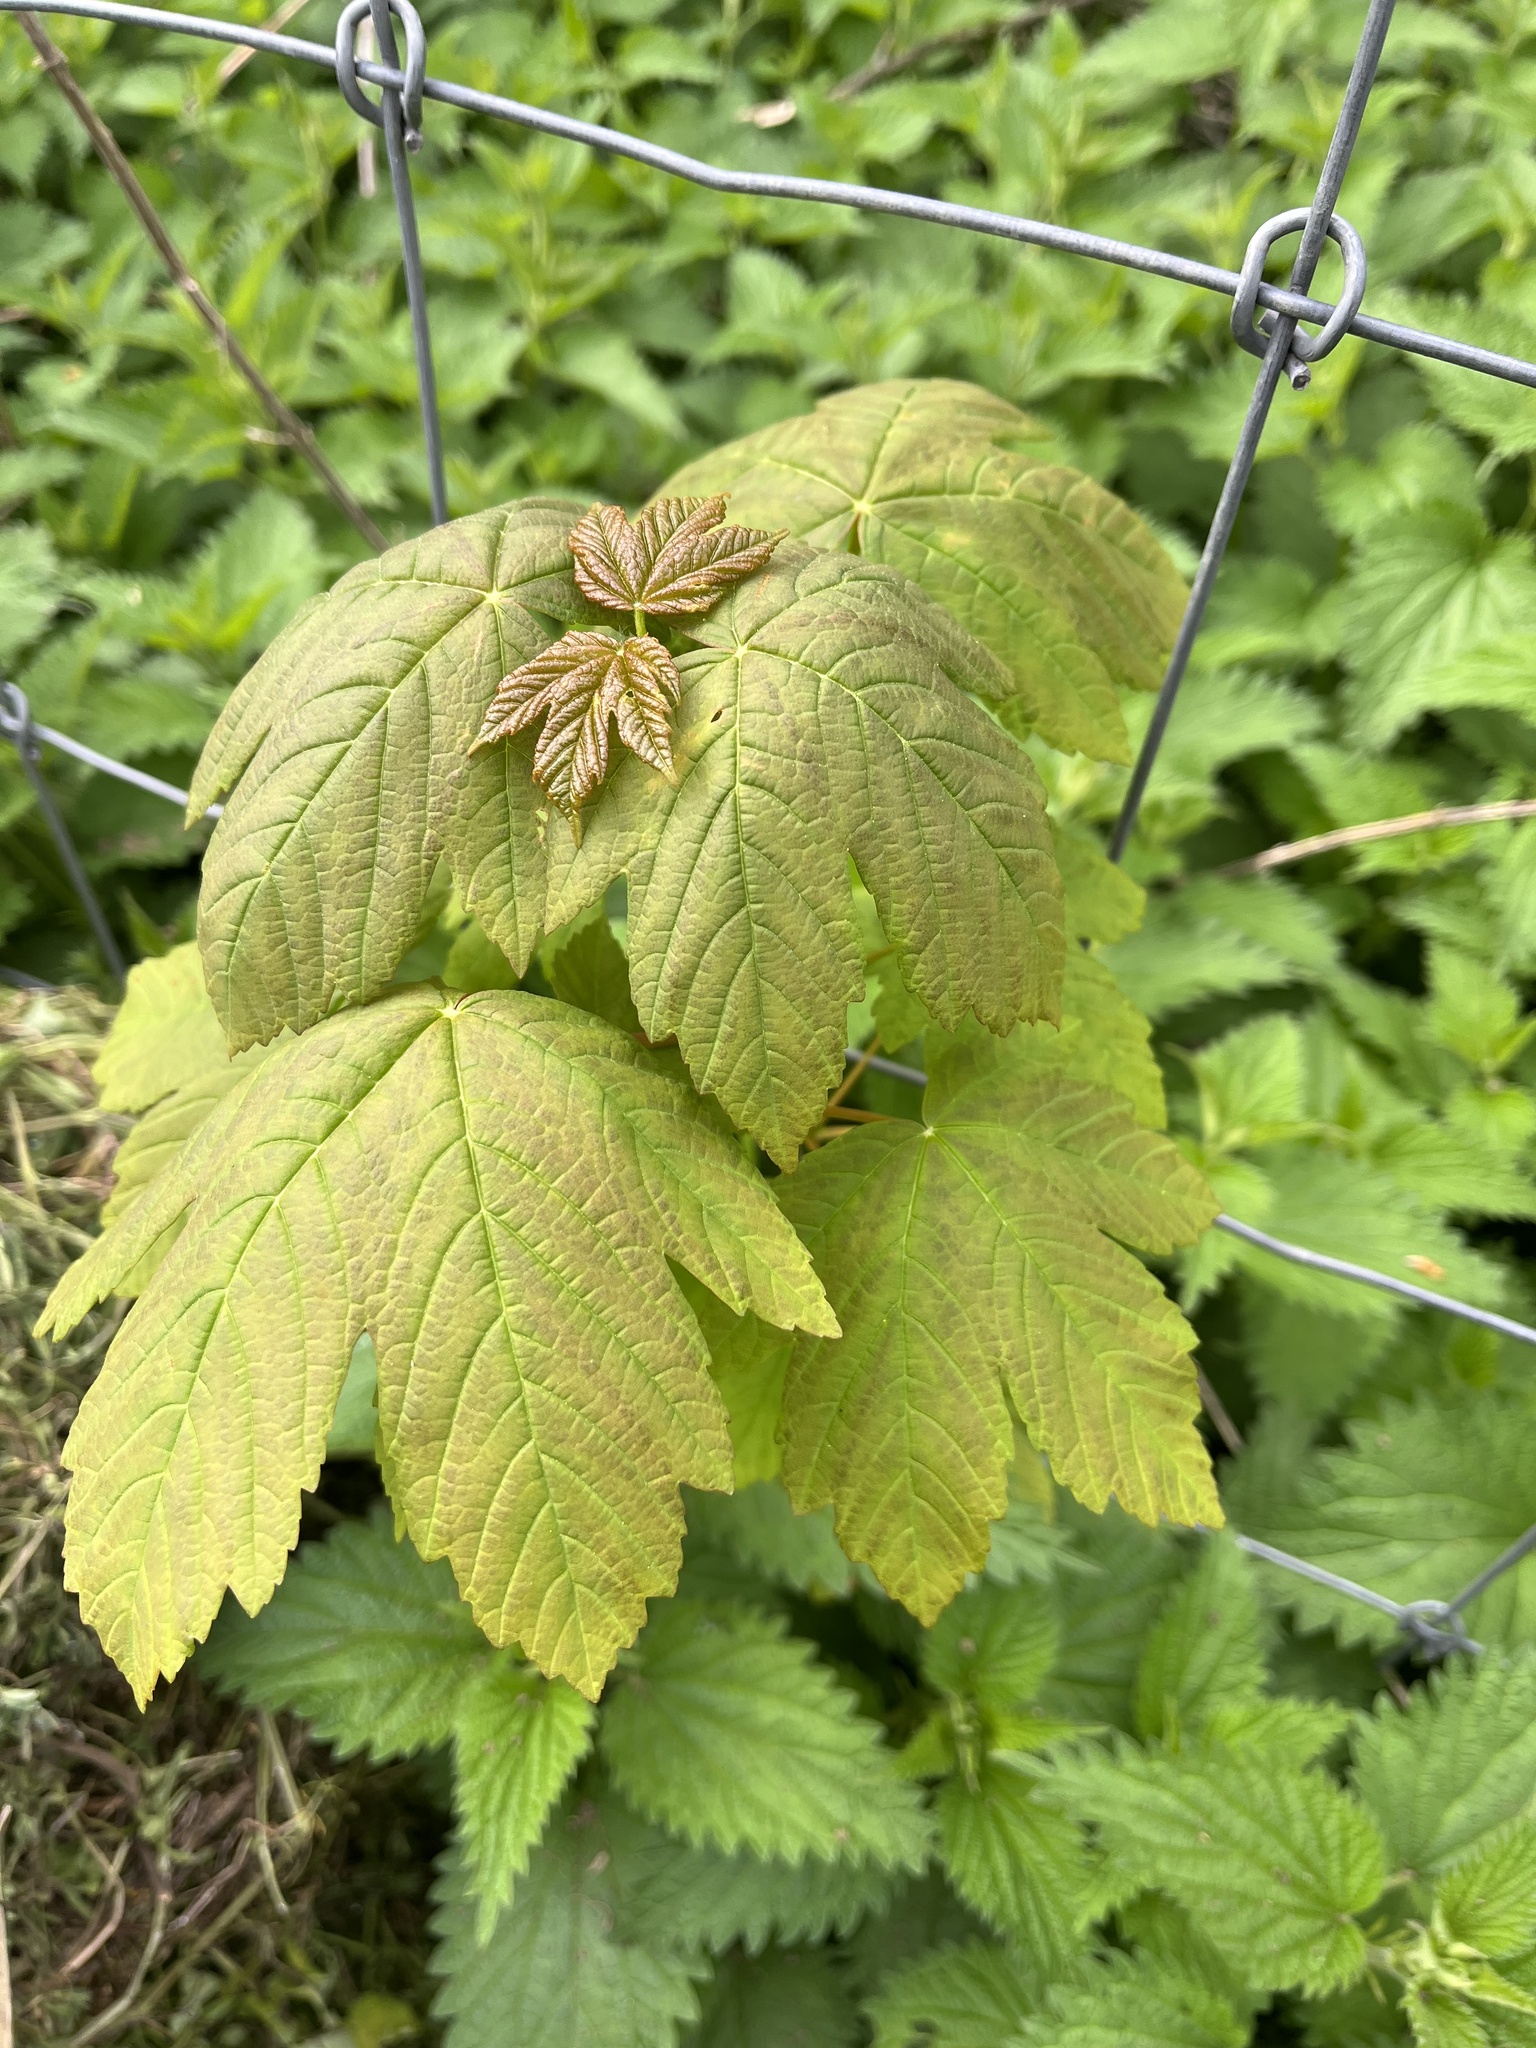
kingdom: Plantae
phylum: Tracheophyta
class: Magnoliopsida
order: Sapindales
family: Sapindaceae
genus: Acer
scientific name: Acer pseudoplatanus
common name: Sycamore
